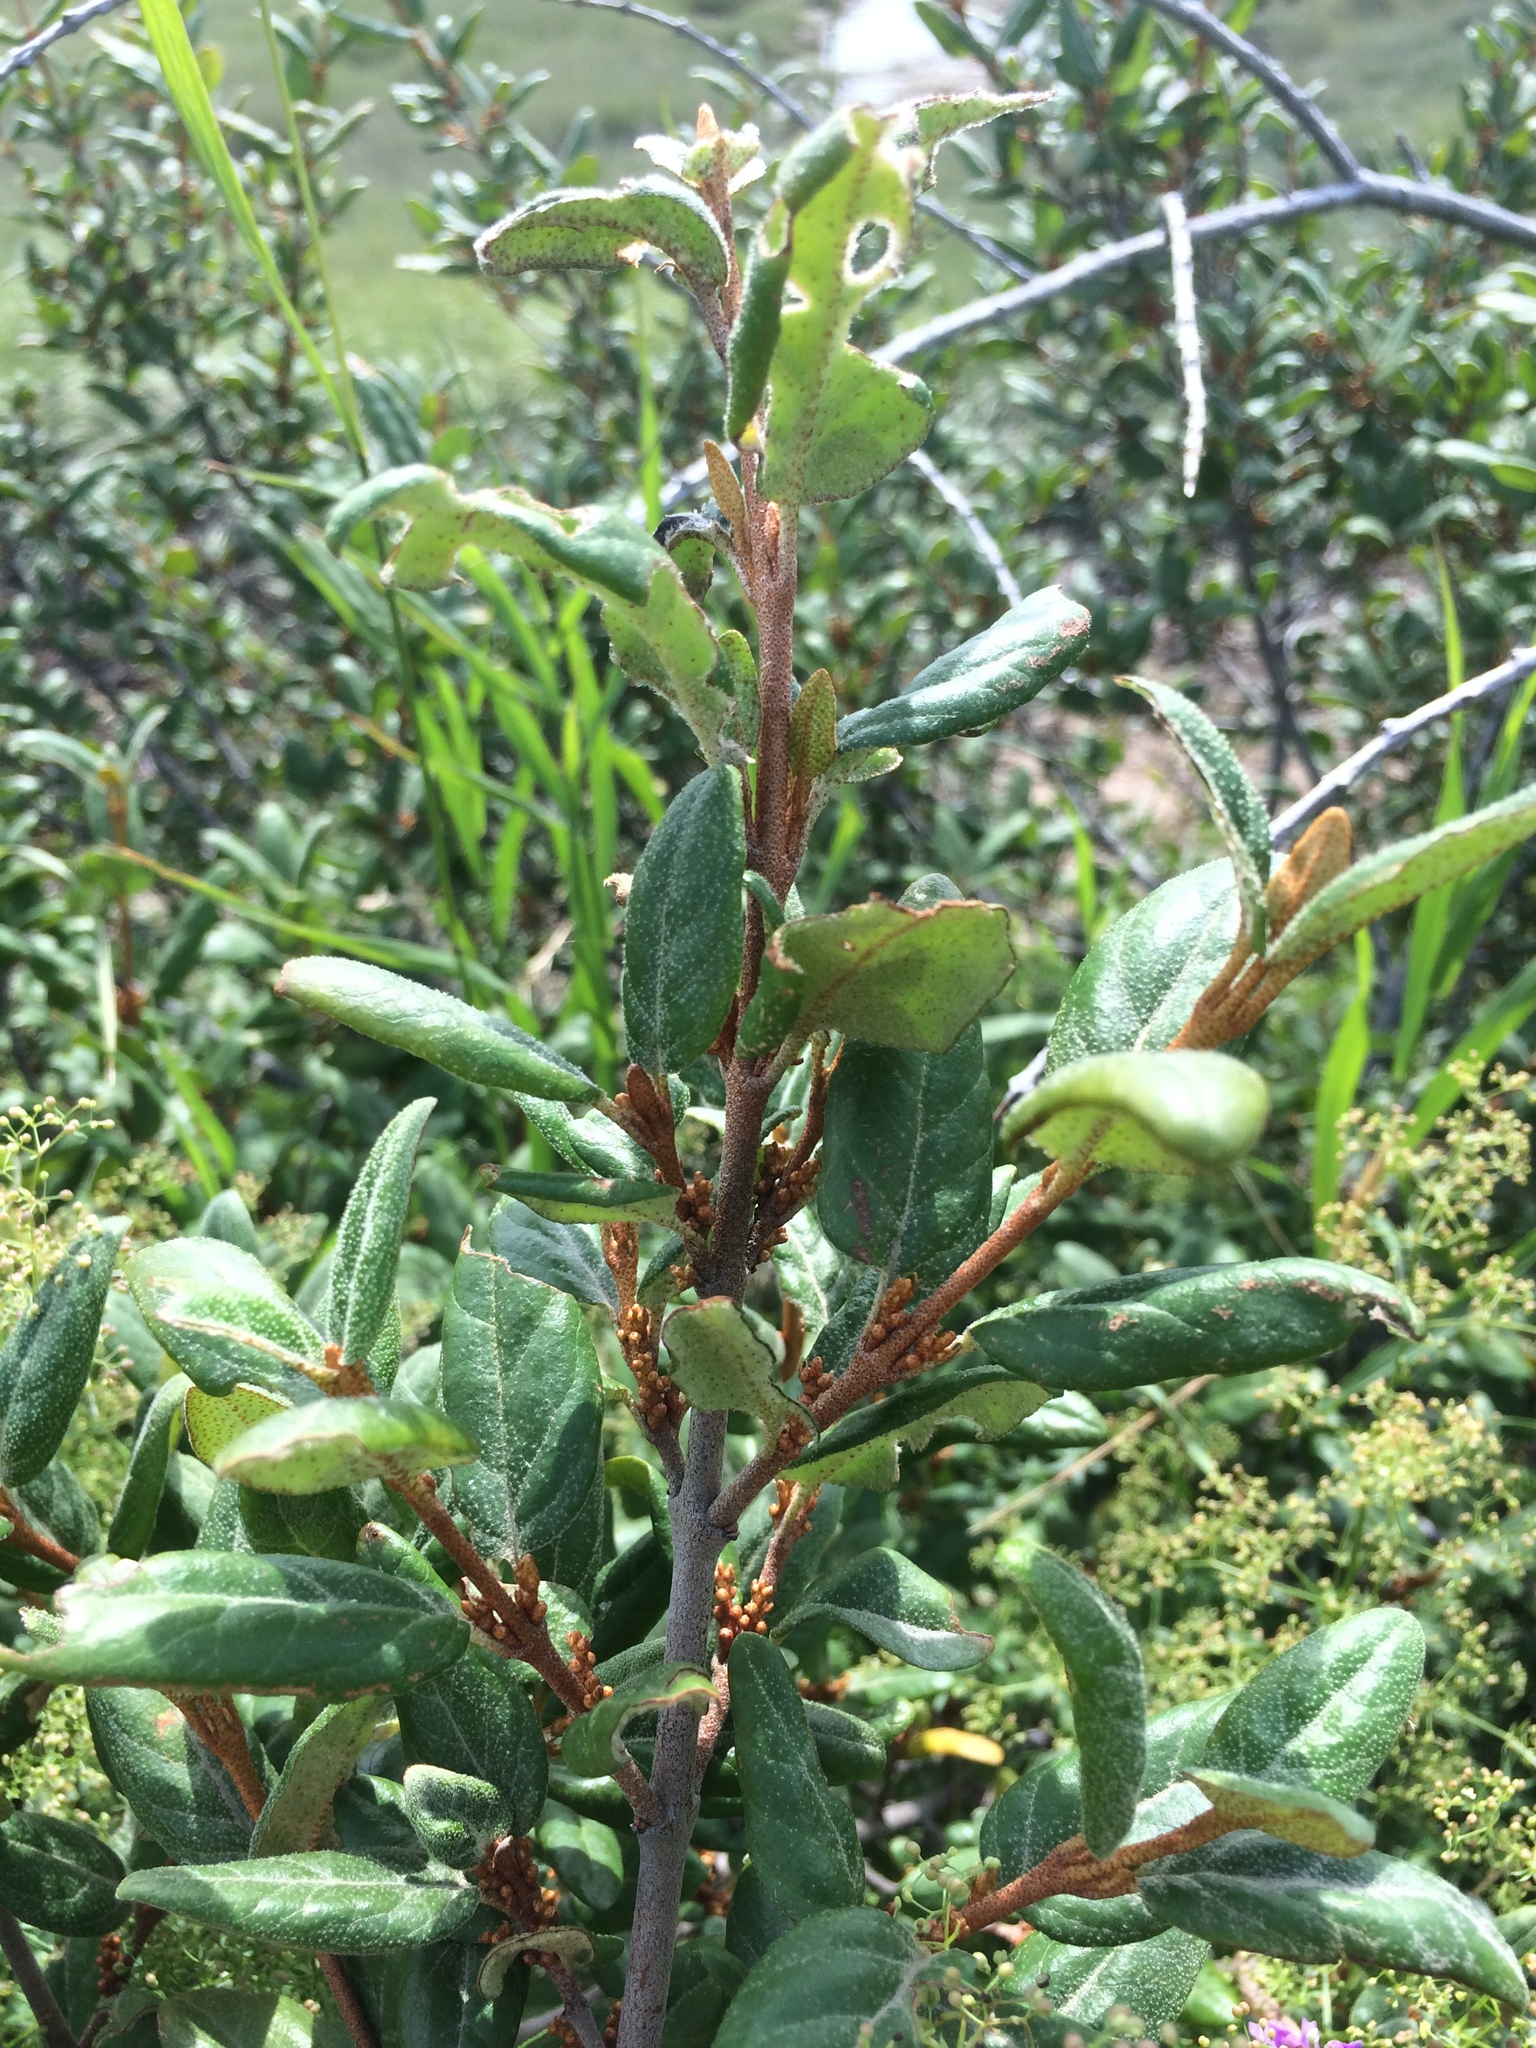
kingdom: Plantae
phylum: Tracheophyta
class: Magnoliopsida
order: Rosales
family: Elaeagnaceae
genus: Shepherdia
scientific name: Shepherdia canadensis
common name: Soapberry
